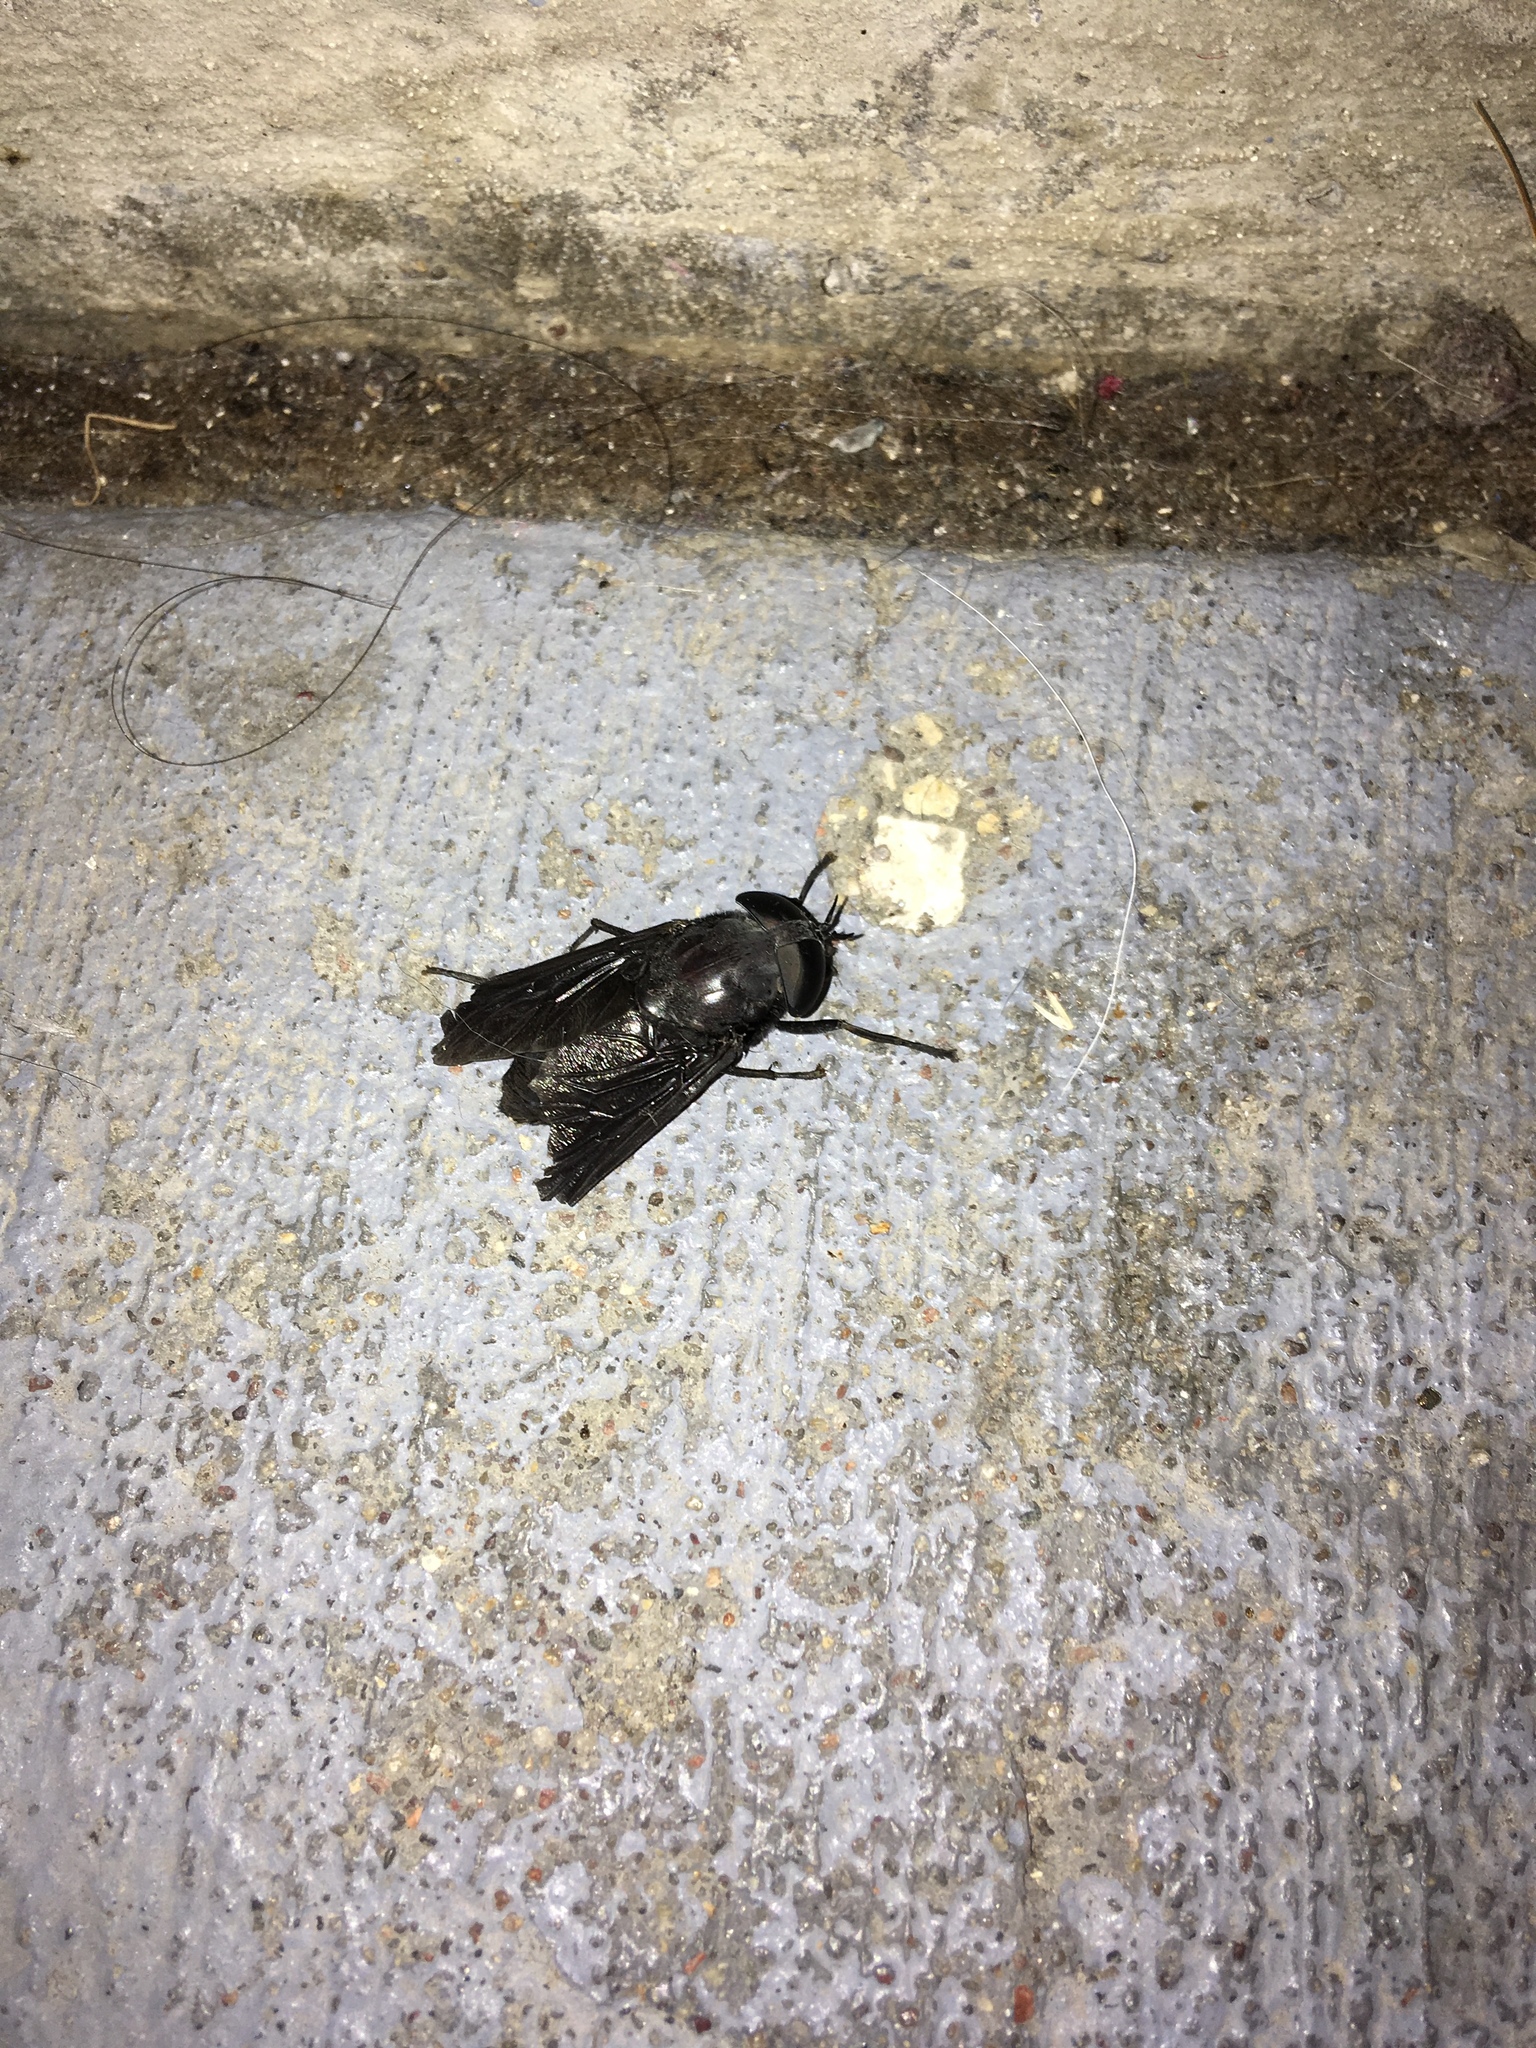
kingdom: Animalia
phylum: Arthropoda
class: Insecta
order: Diptera
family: Tabanidae
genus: Tabanus
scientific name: Tabanus atratus
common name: Black horse fly
